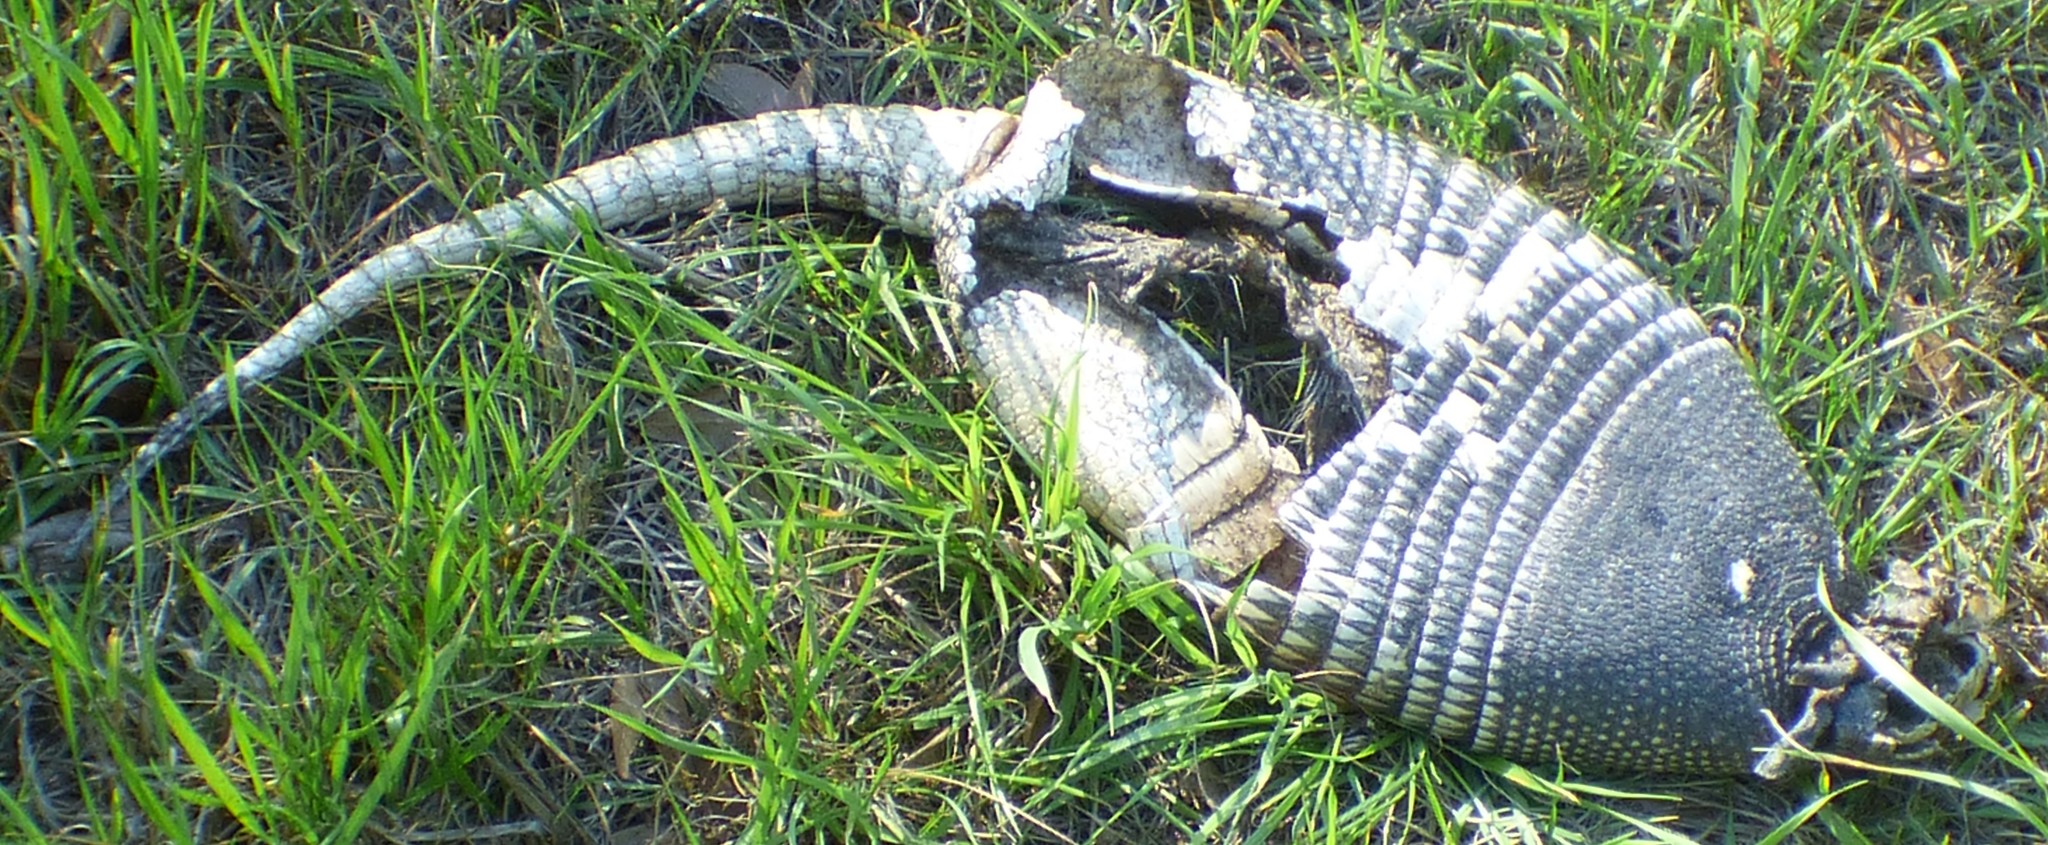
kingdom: Animalia
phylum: Chordata
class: Mammalia
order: Cingulata
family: Dasypodidae
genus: Dasypus
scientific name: Dasypus novemcinctus
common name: Nine-banded armadillo
